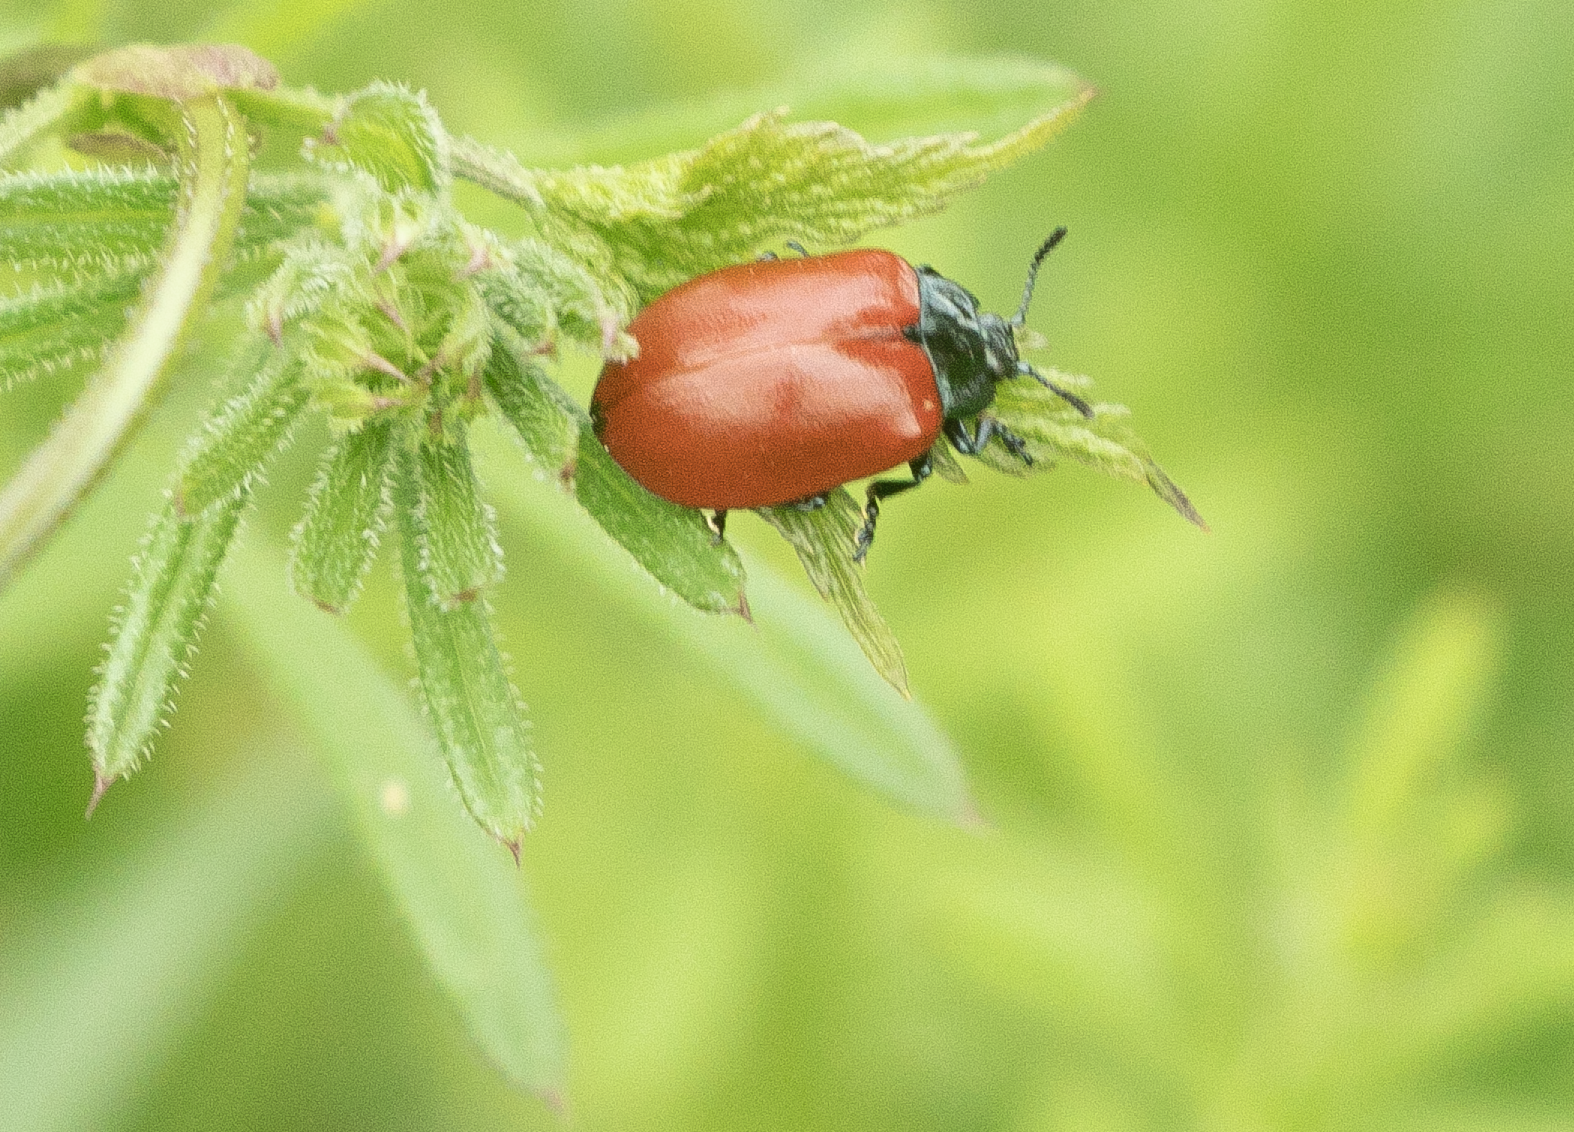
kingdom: Animalia
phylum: Arthropoda
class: Insecta
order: Coleoptera
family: Chrysomelidae
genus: Chrysomela
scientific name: Chrysomela populi
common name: Red poplar leaf beetle
